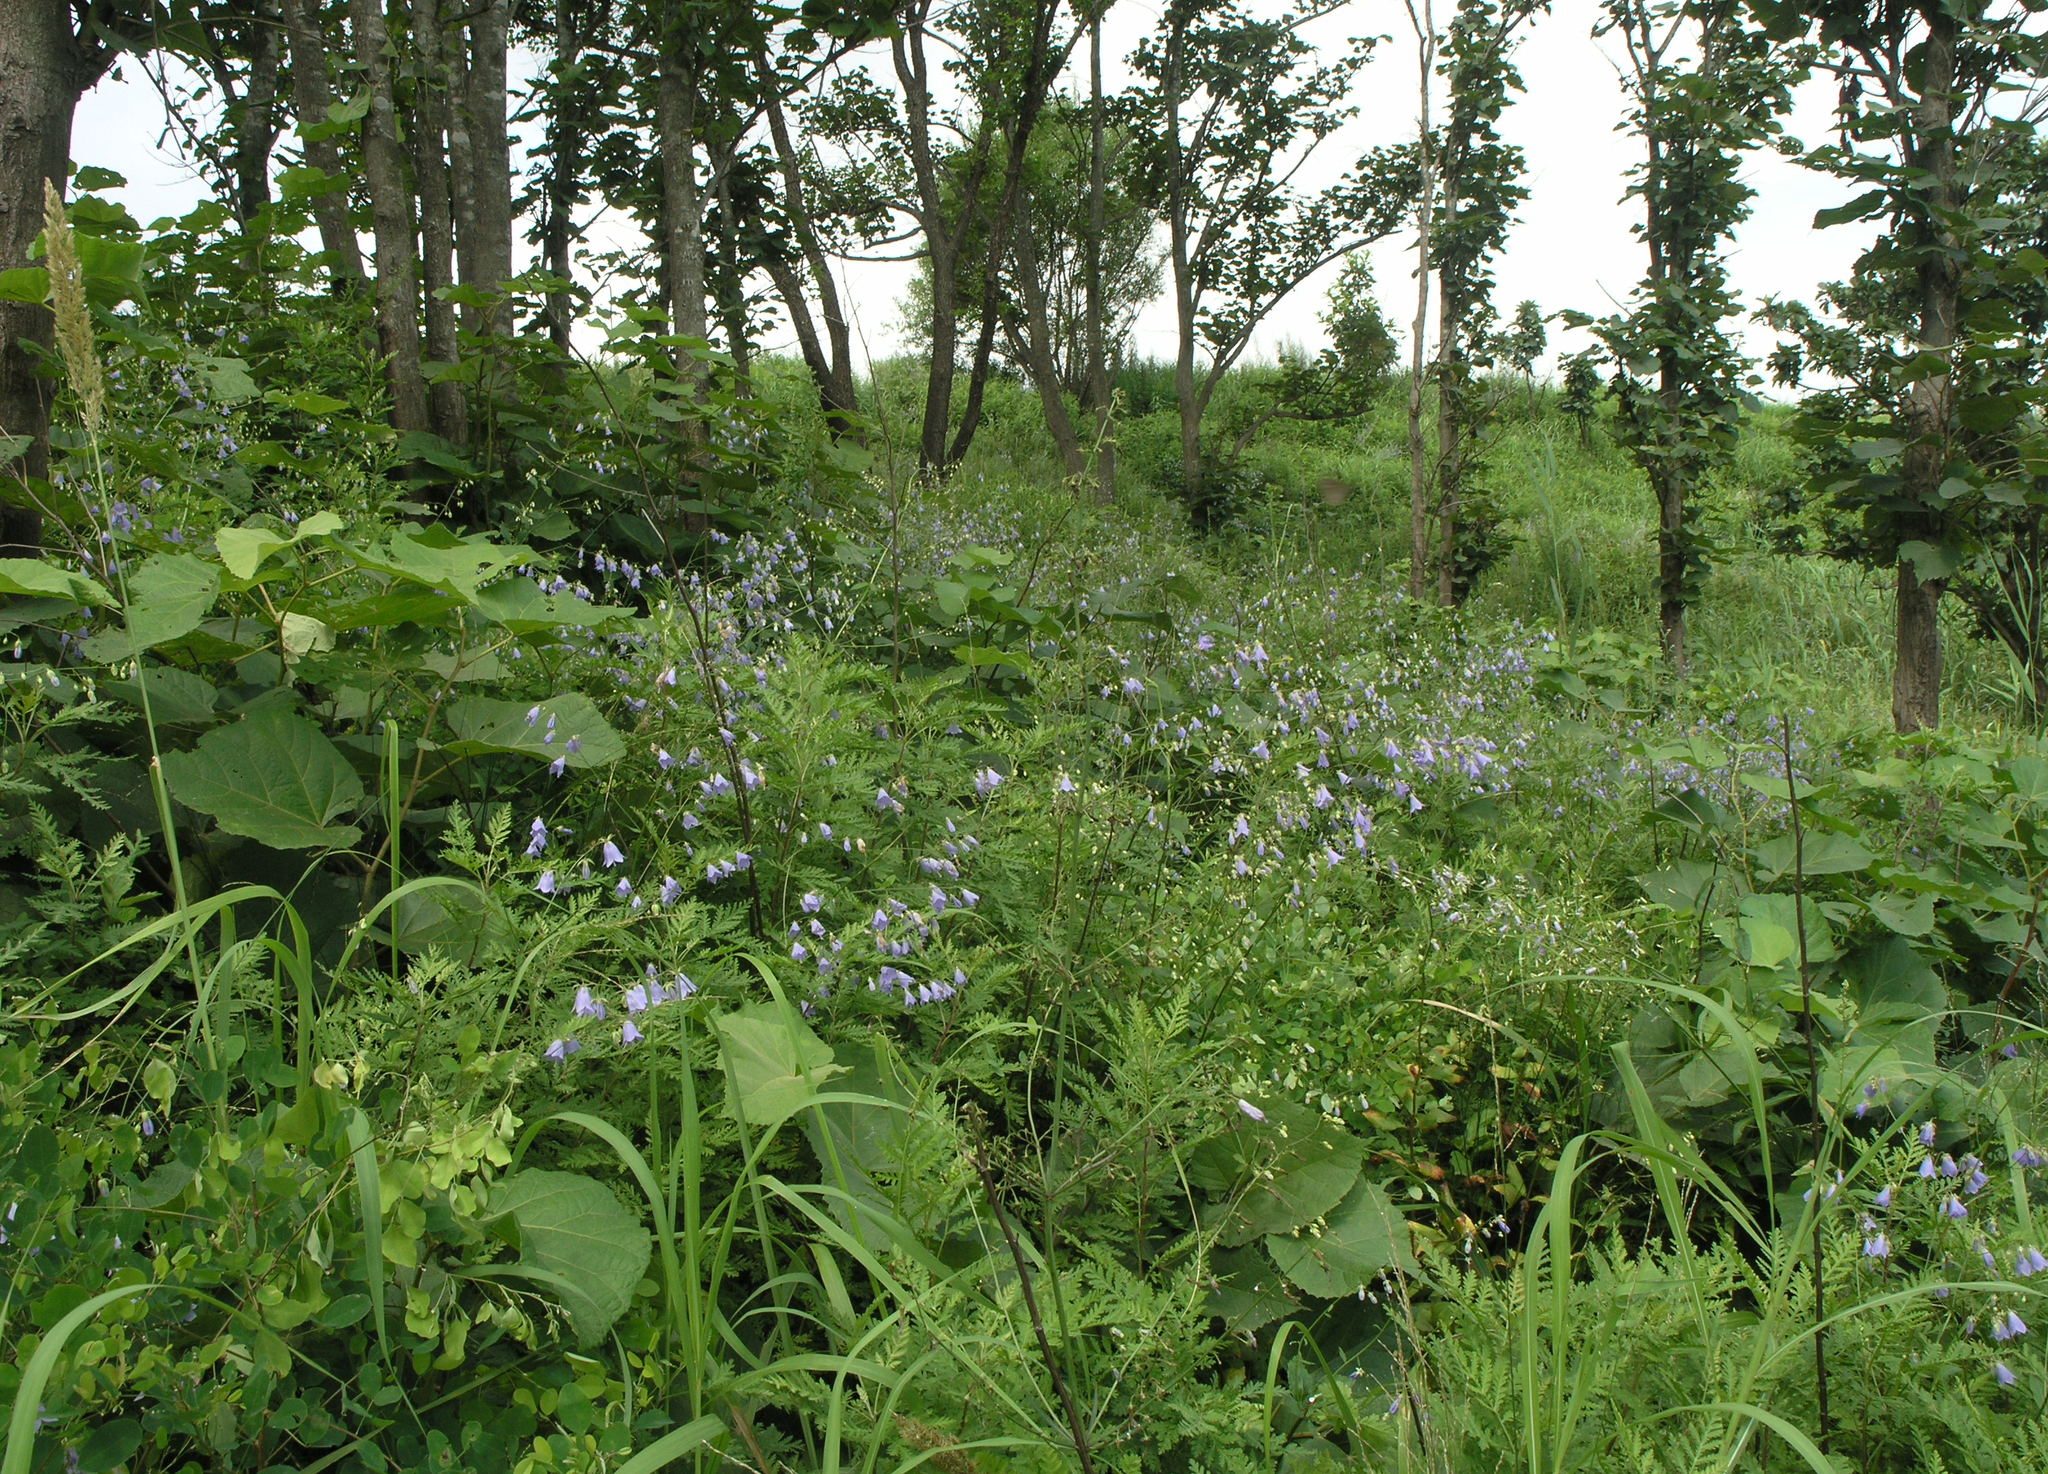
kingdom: Plantae
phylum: Tracheophyta
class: Magnoliopsida
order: Asterales
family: Campanulaceae
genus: Adenophora
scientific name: Adenophora divaricata
